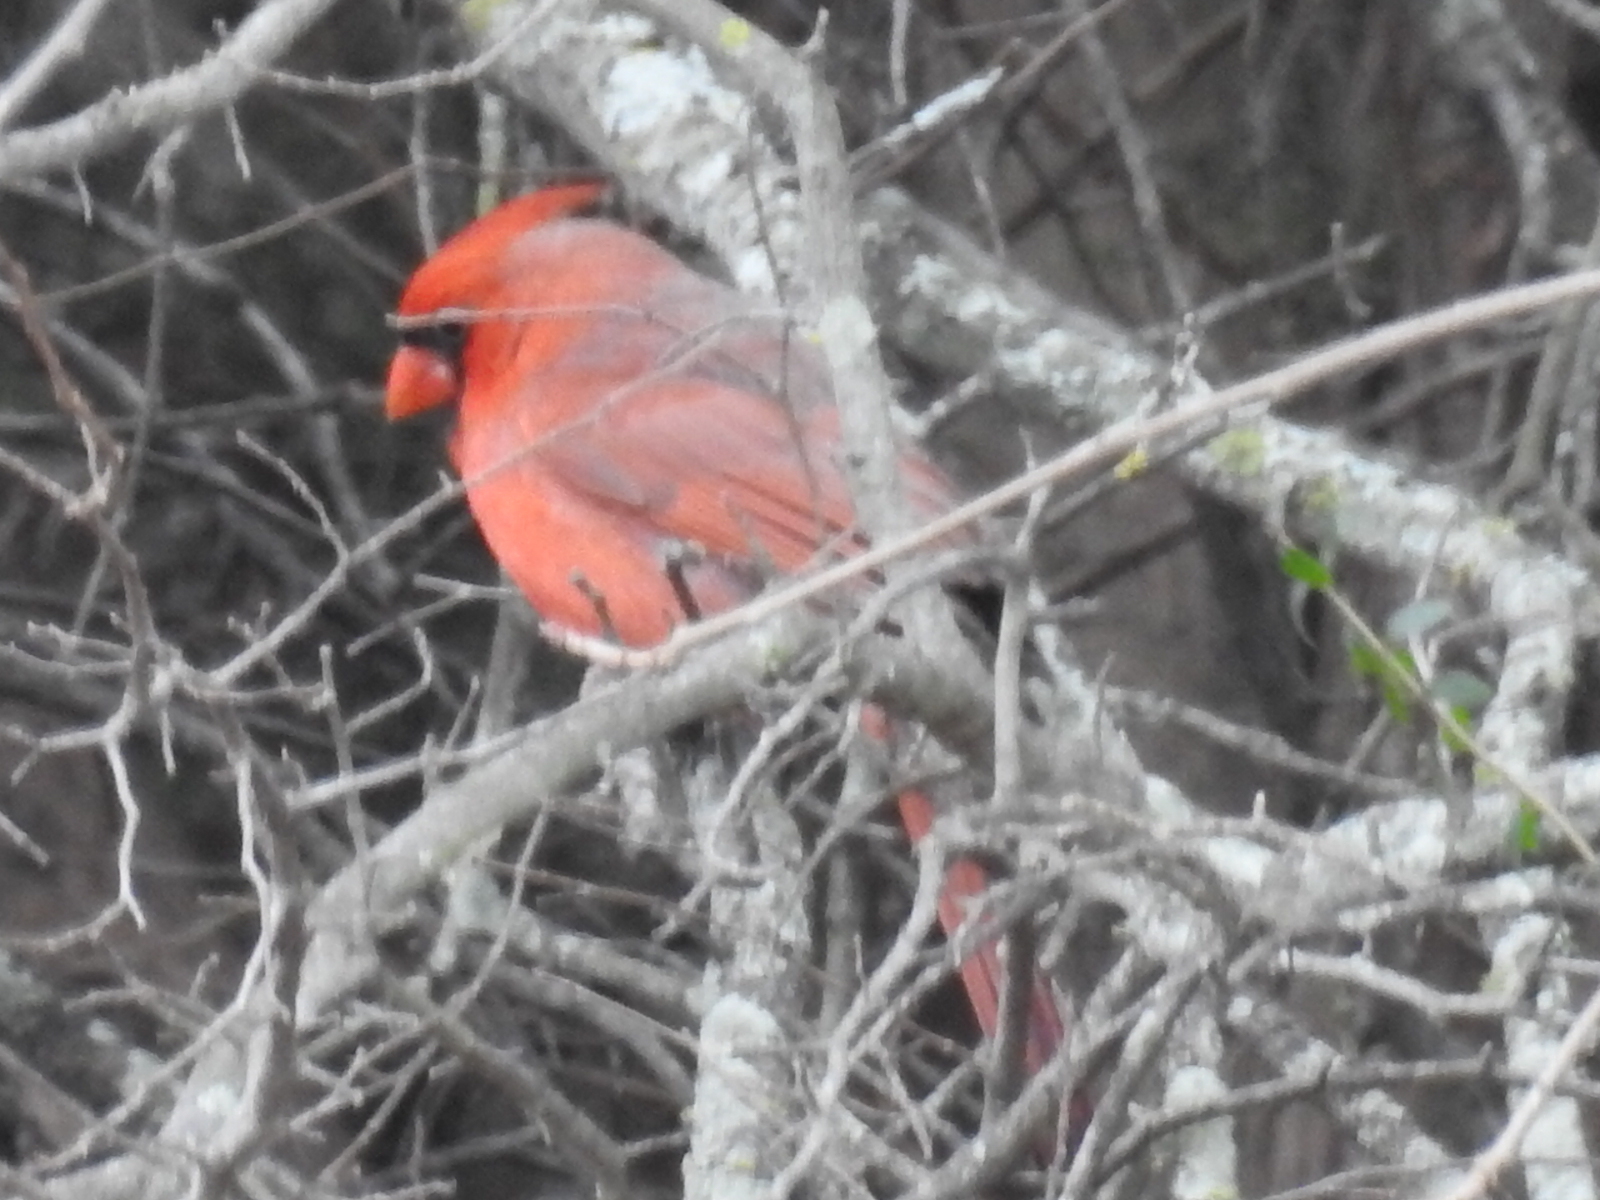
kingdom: Animalia
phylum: Chordata
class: Aves
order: Passeriformes
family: Cardinalidae
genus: Cardinalis
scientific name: Cardinalis cardinalis
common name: Northern cardinal
